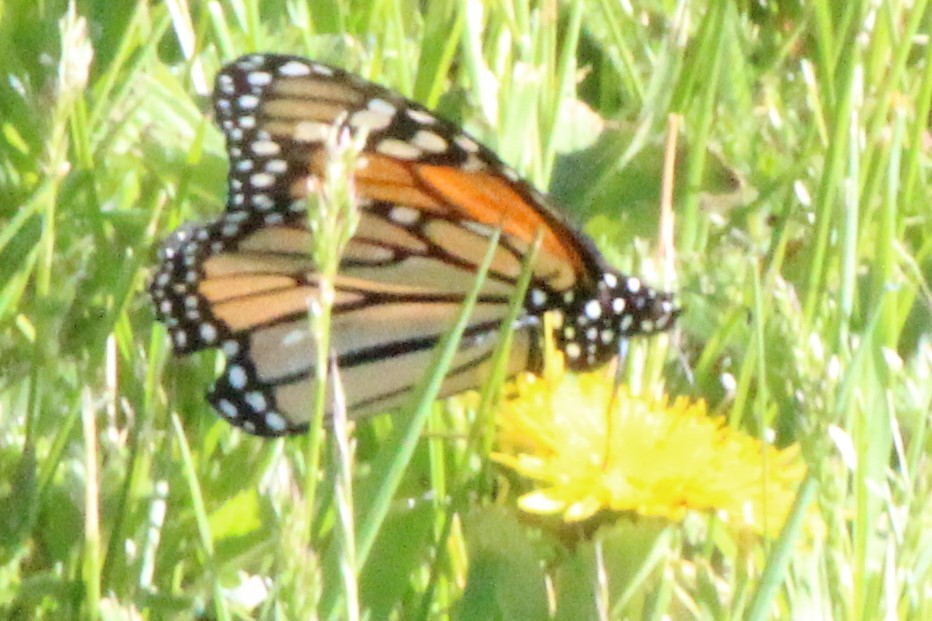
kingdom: Animalia
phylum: Arthropoda
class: Insecta
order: Lepidoptera
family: Nymphalidae
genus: Danaus
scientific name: Danaus plexippus
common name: Monarch
